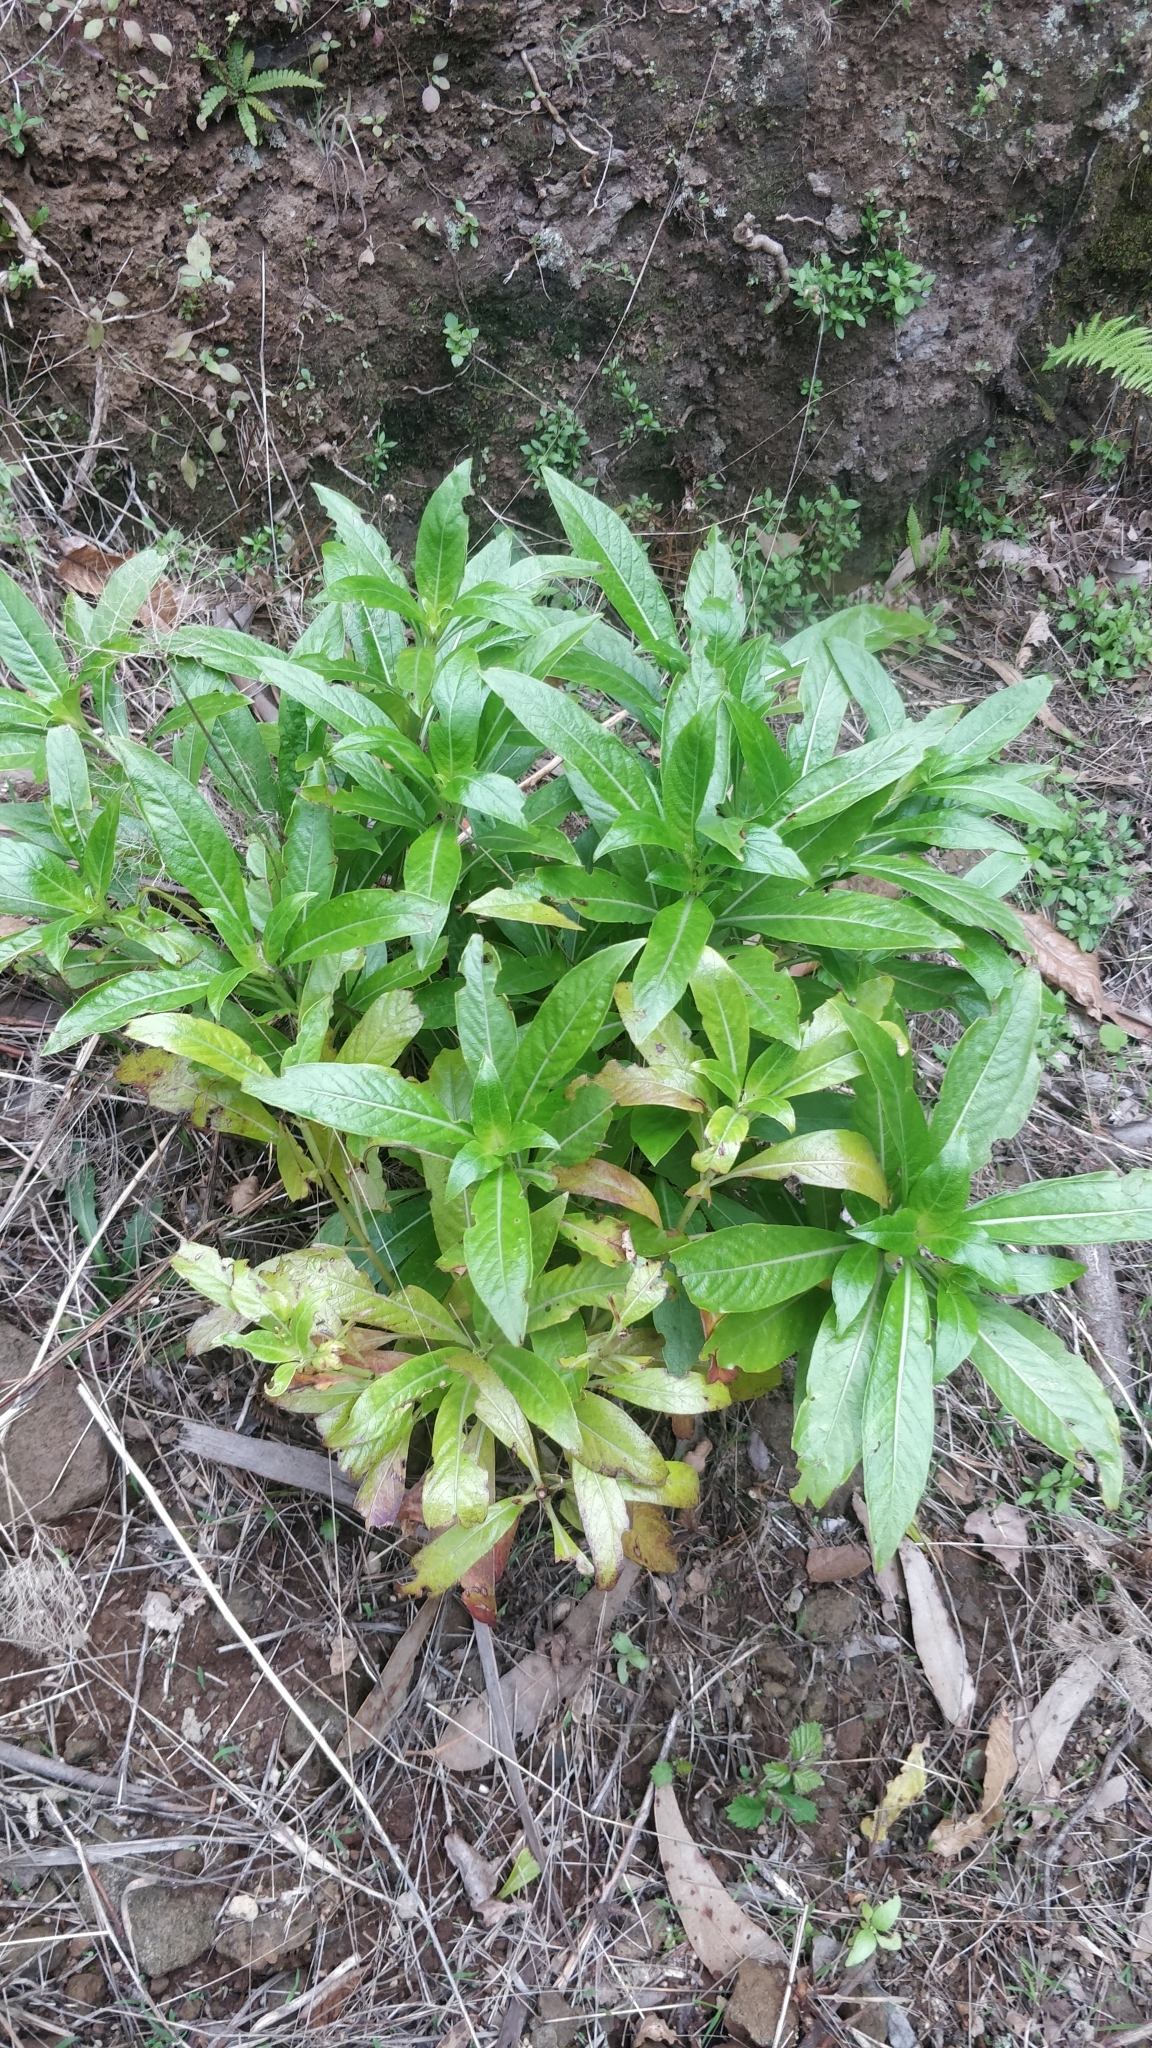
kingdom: Plantae
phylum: Tracheophyta
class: Magnoliopsida
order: Gentianales
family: Rubiaceae
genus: Phyllis
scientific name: Phyllis nobla
